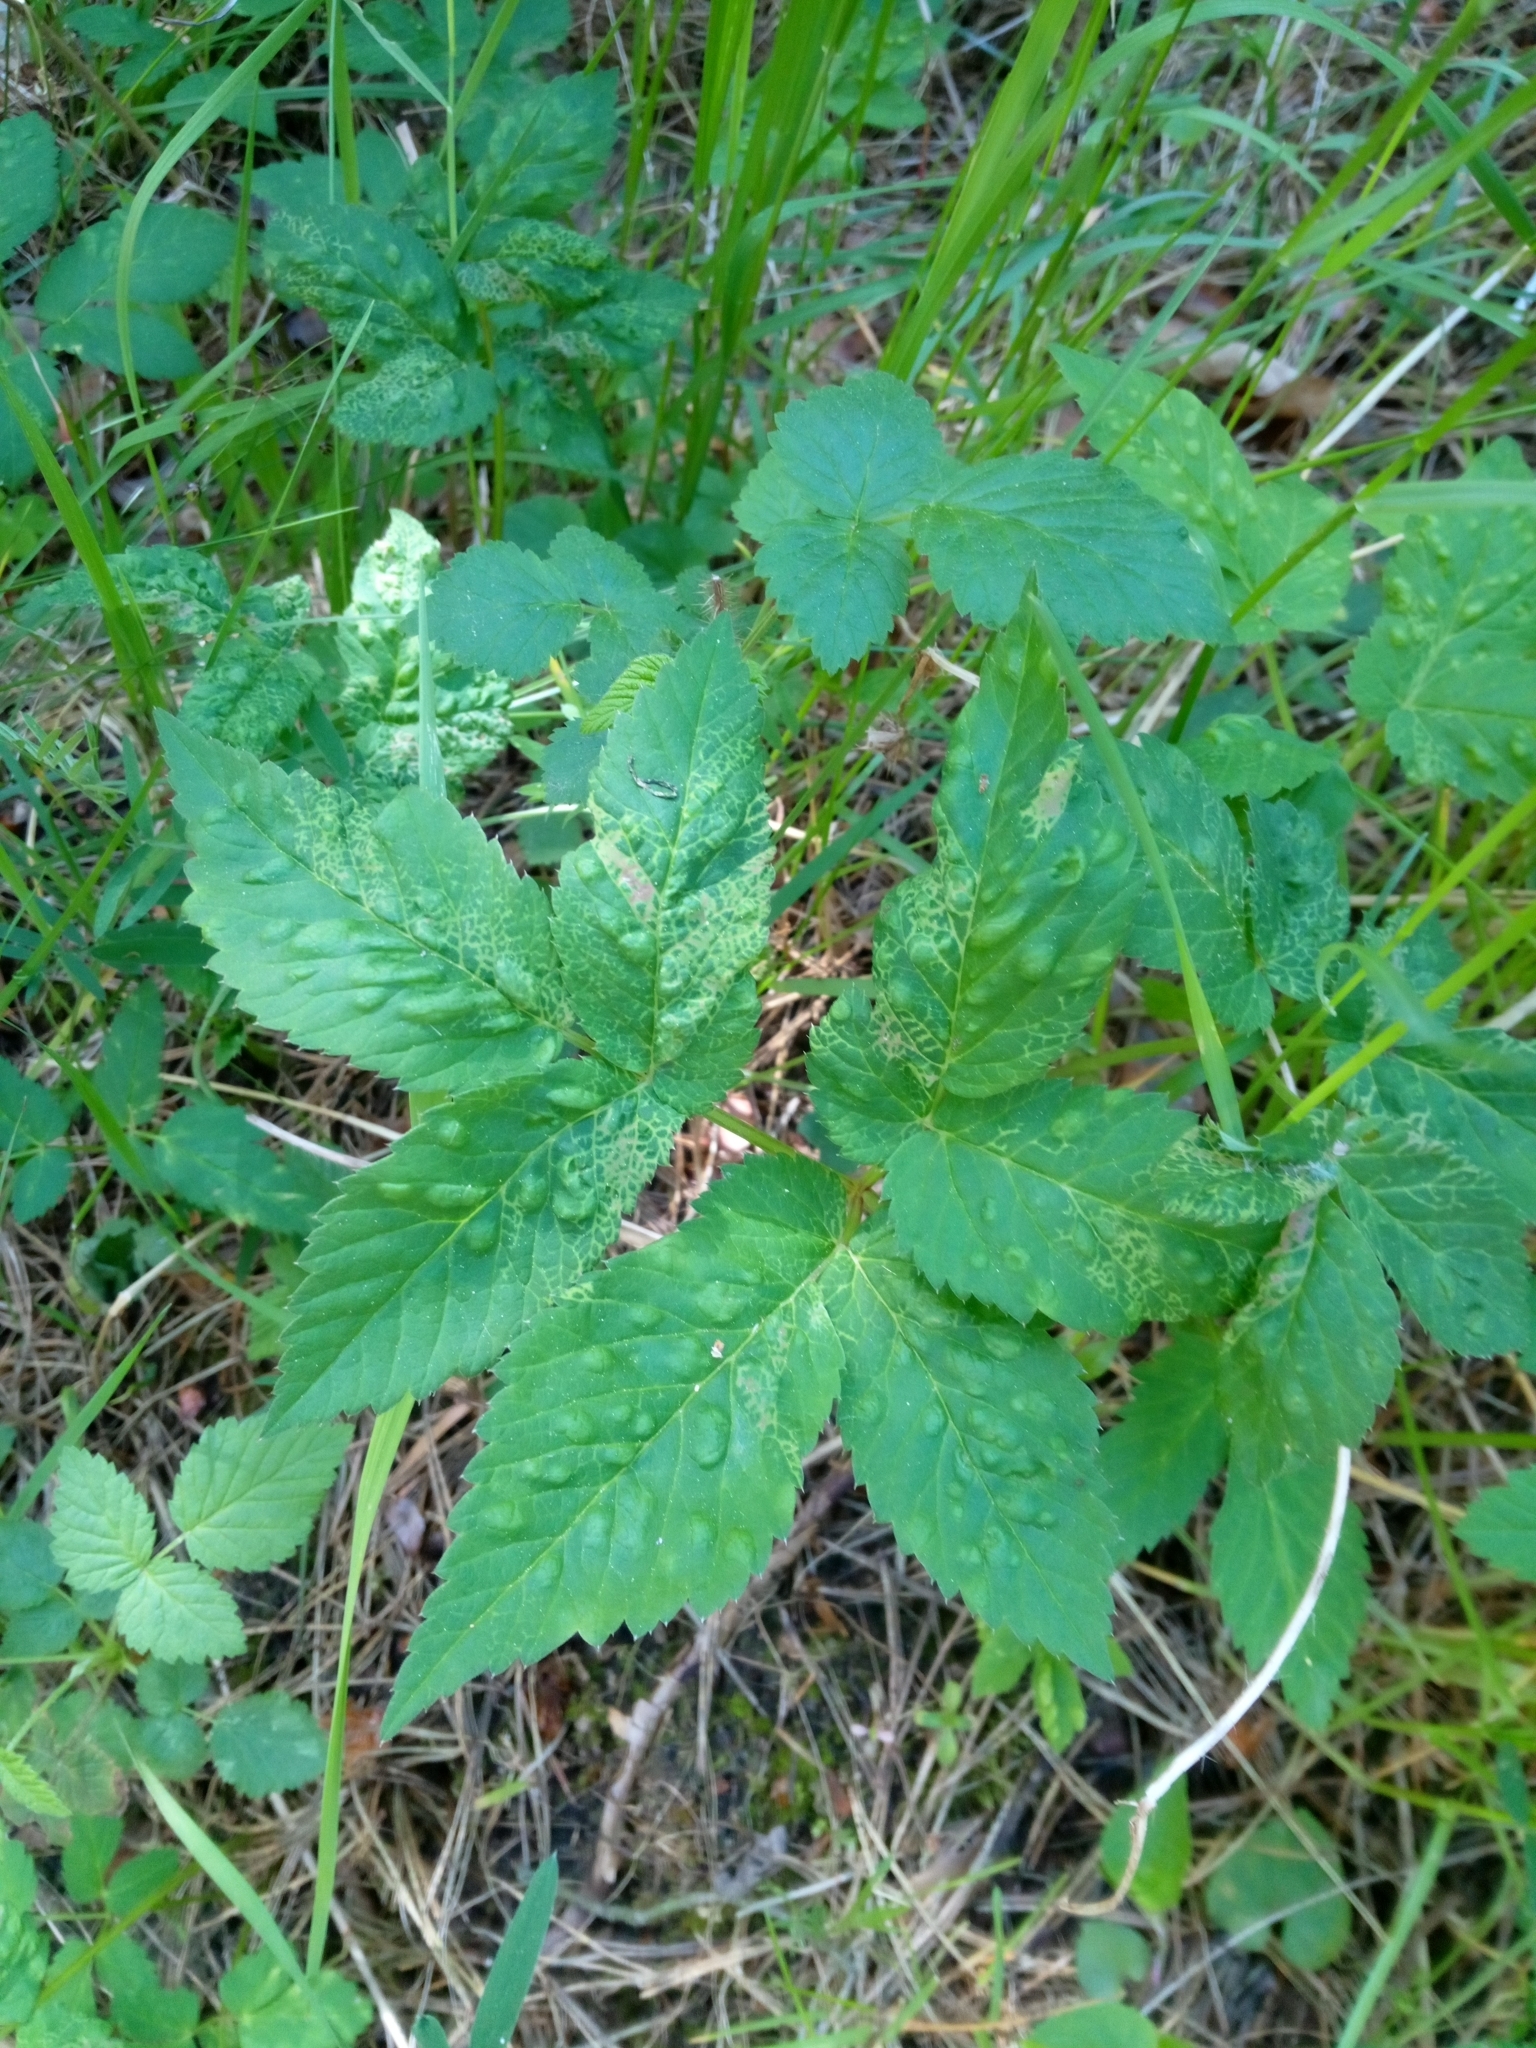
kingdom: Plantae
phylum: Tracheophyta
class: Magnoliopsida
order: Apiales
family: Apiaceae
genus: Aegopodium
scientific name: Aegopodium podagraria
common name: Ground-elder
